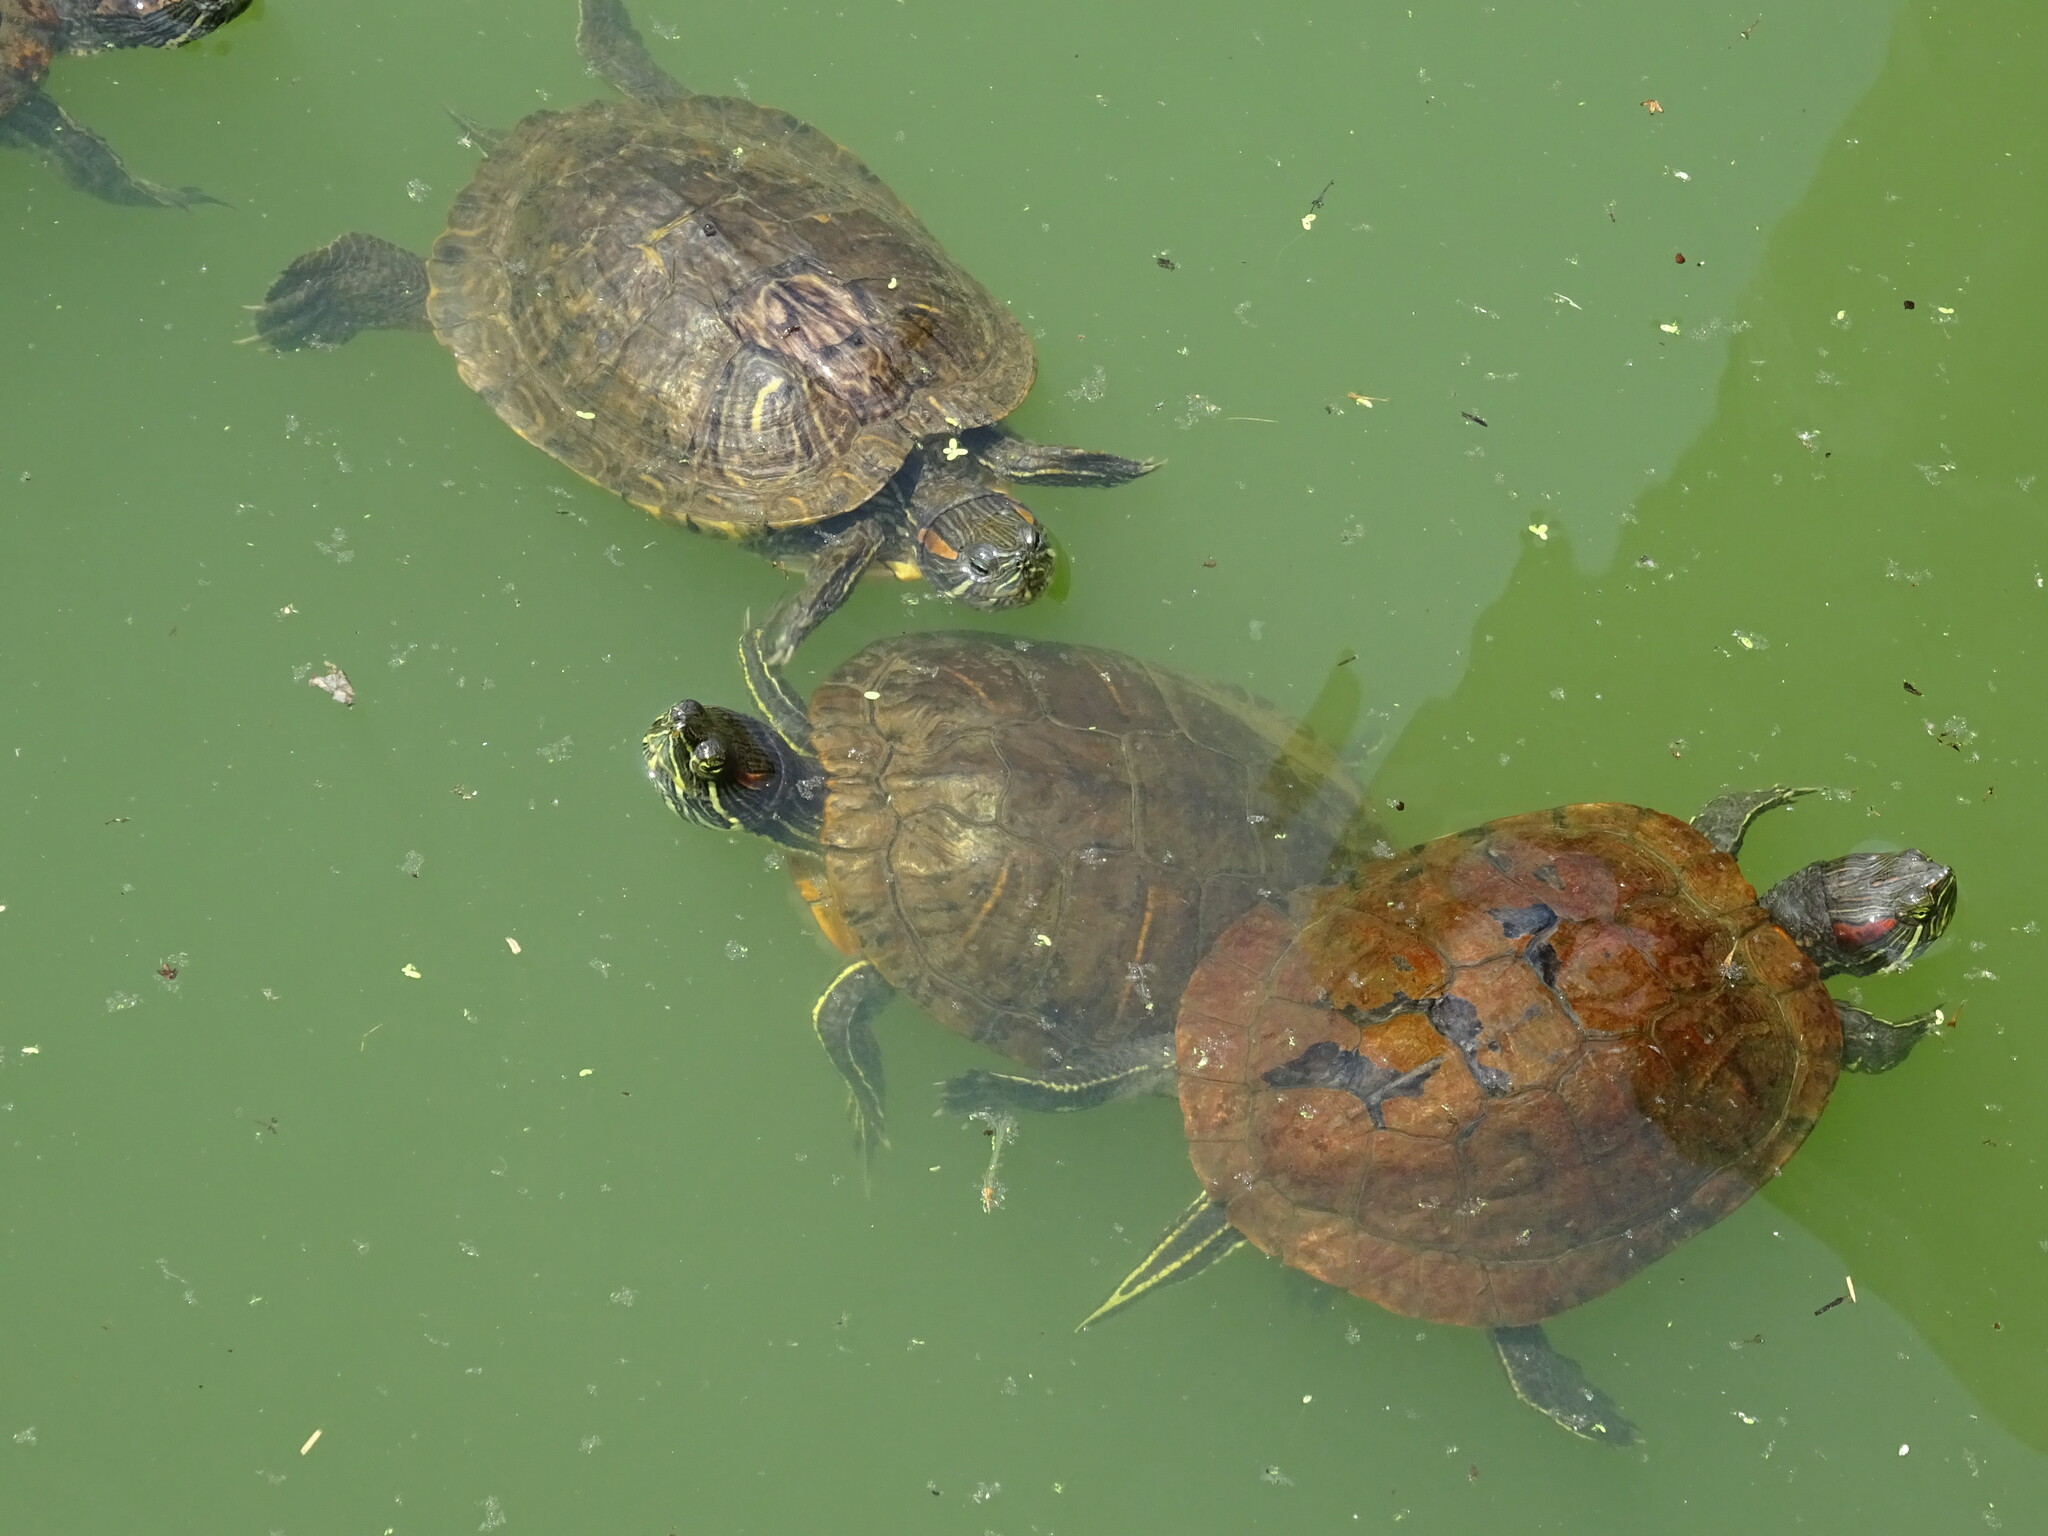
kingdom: Animalia
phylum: Chordata
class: Testudines
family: Emydidae
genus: Trachemys
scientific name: Trachemys scripta
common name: Slider
